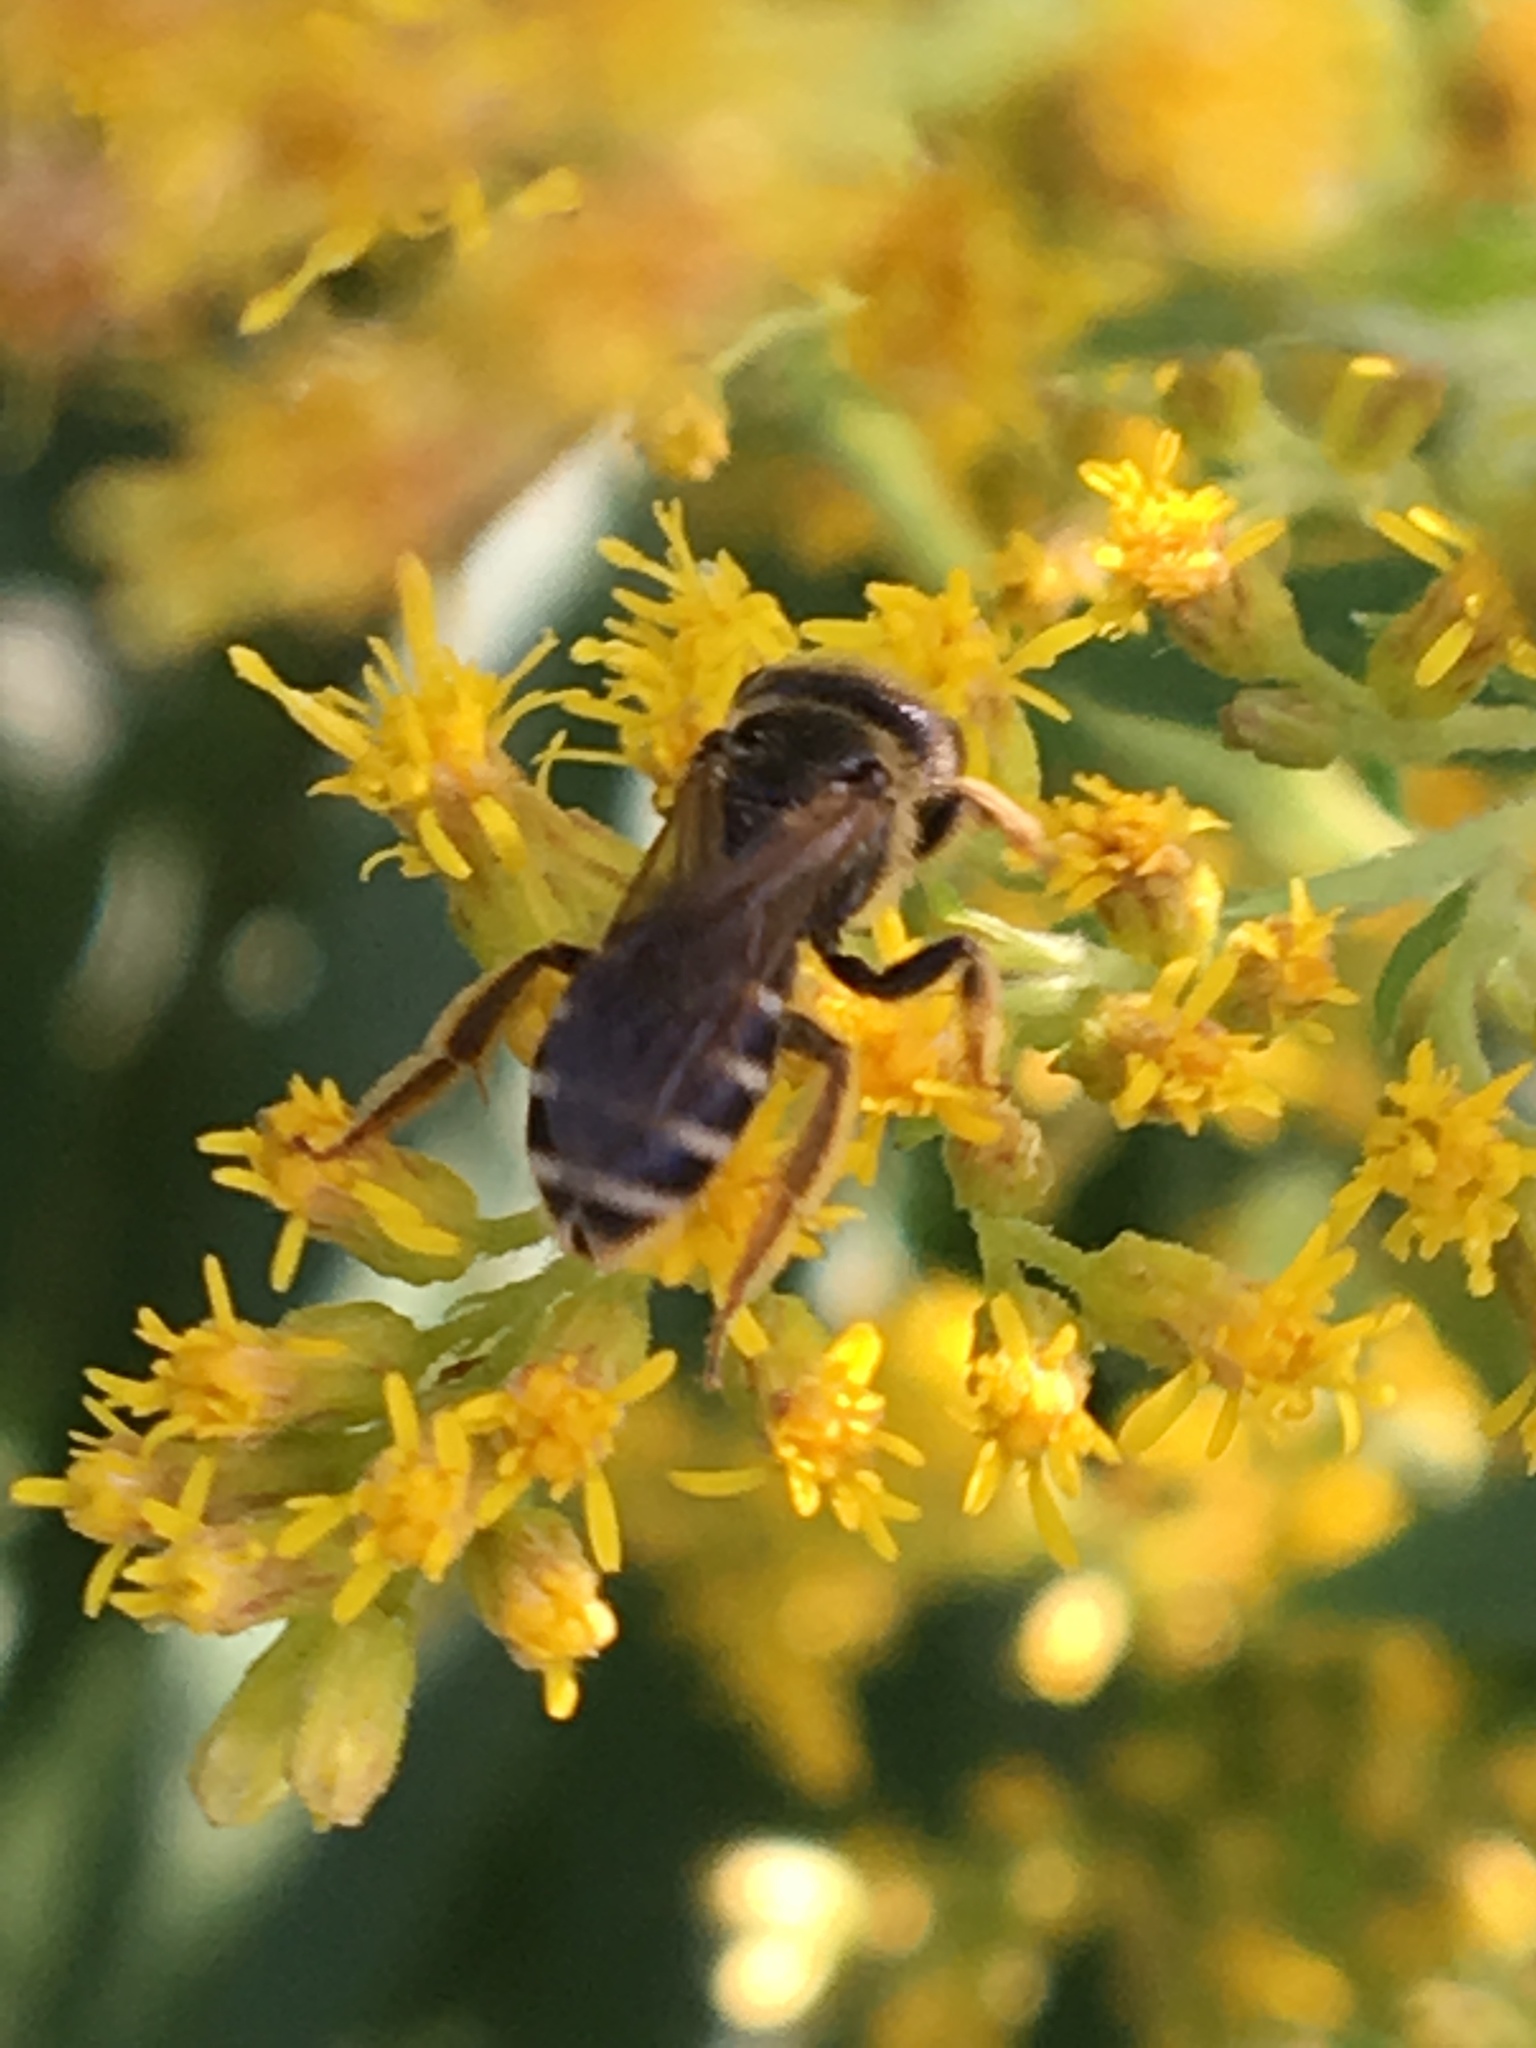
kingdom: Animalia
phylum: Arthropoda
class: Insecta
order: Hymenoptera
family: Halictidae
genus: Halictus
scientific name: Halictus ligatus
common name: Ligated furrow bee
